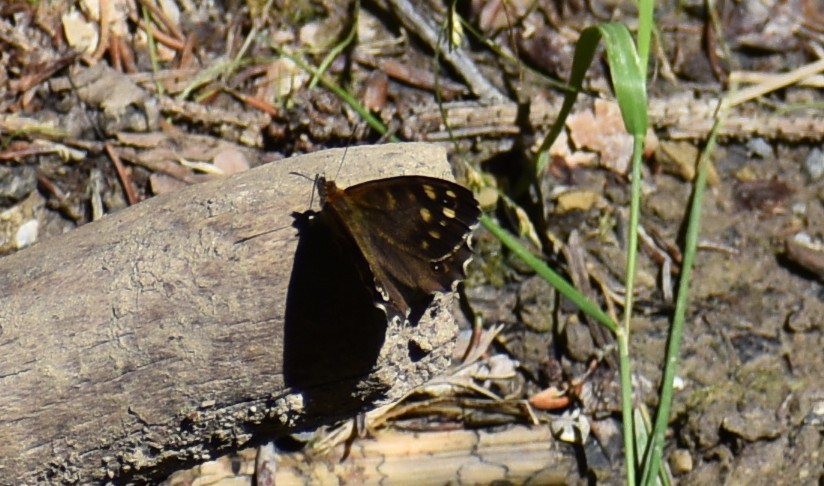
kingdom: Animalia
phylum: Arthropoda
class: Insecta
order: Lepidoptera
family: Nymphalidae
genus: Pararge
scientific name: Pararge aegeria
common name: Speckled wood
